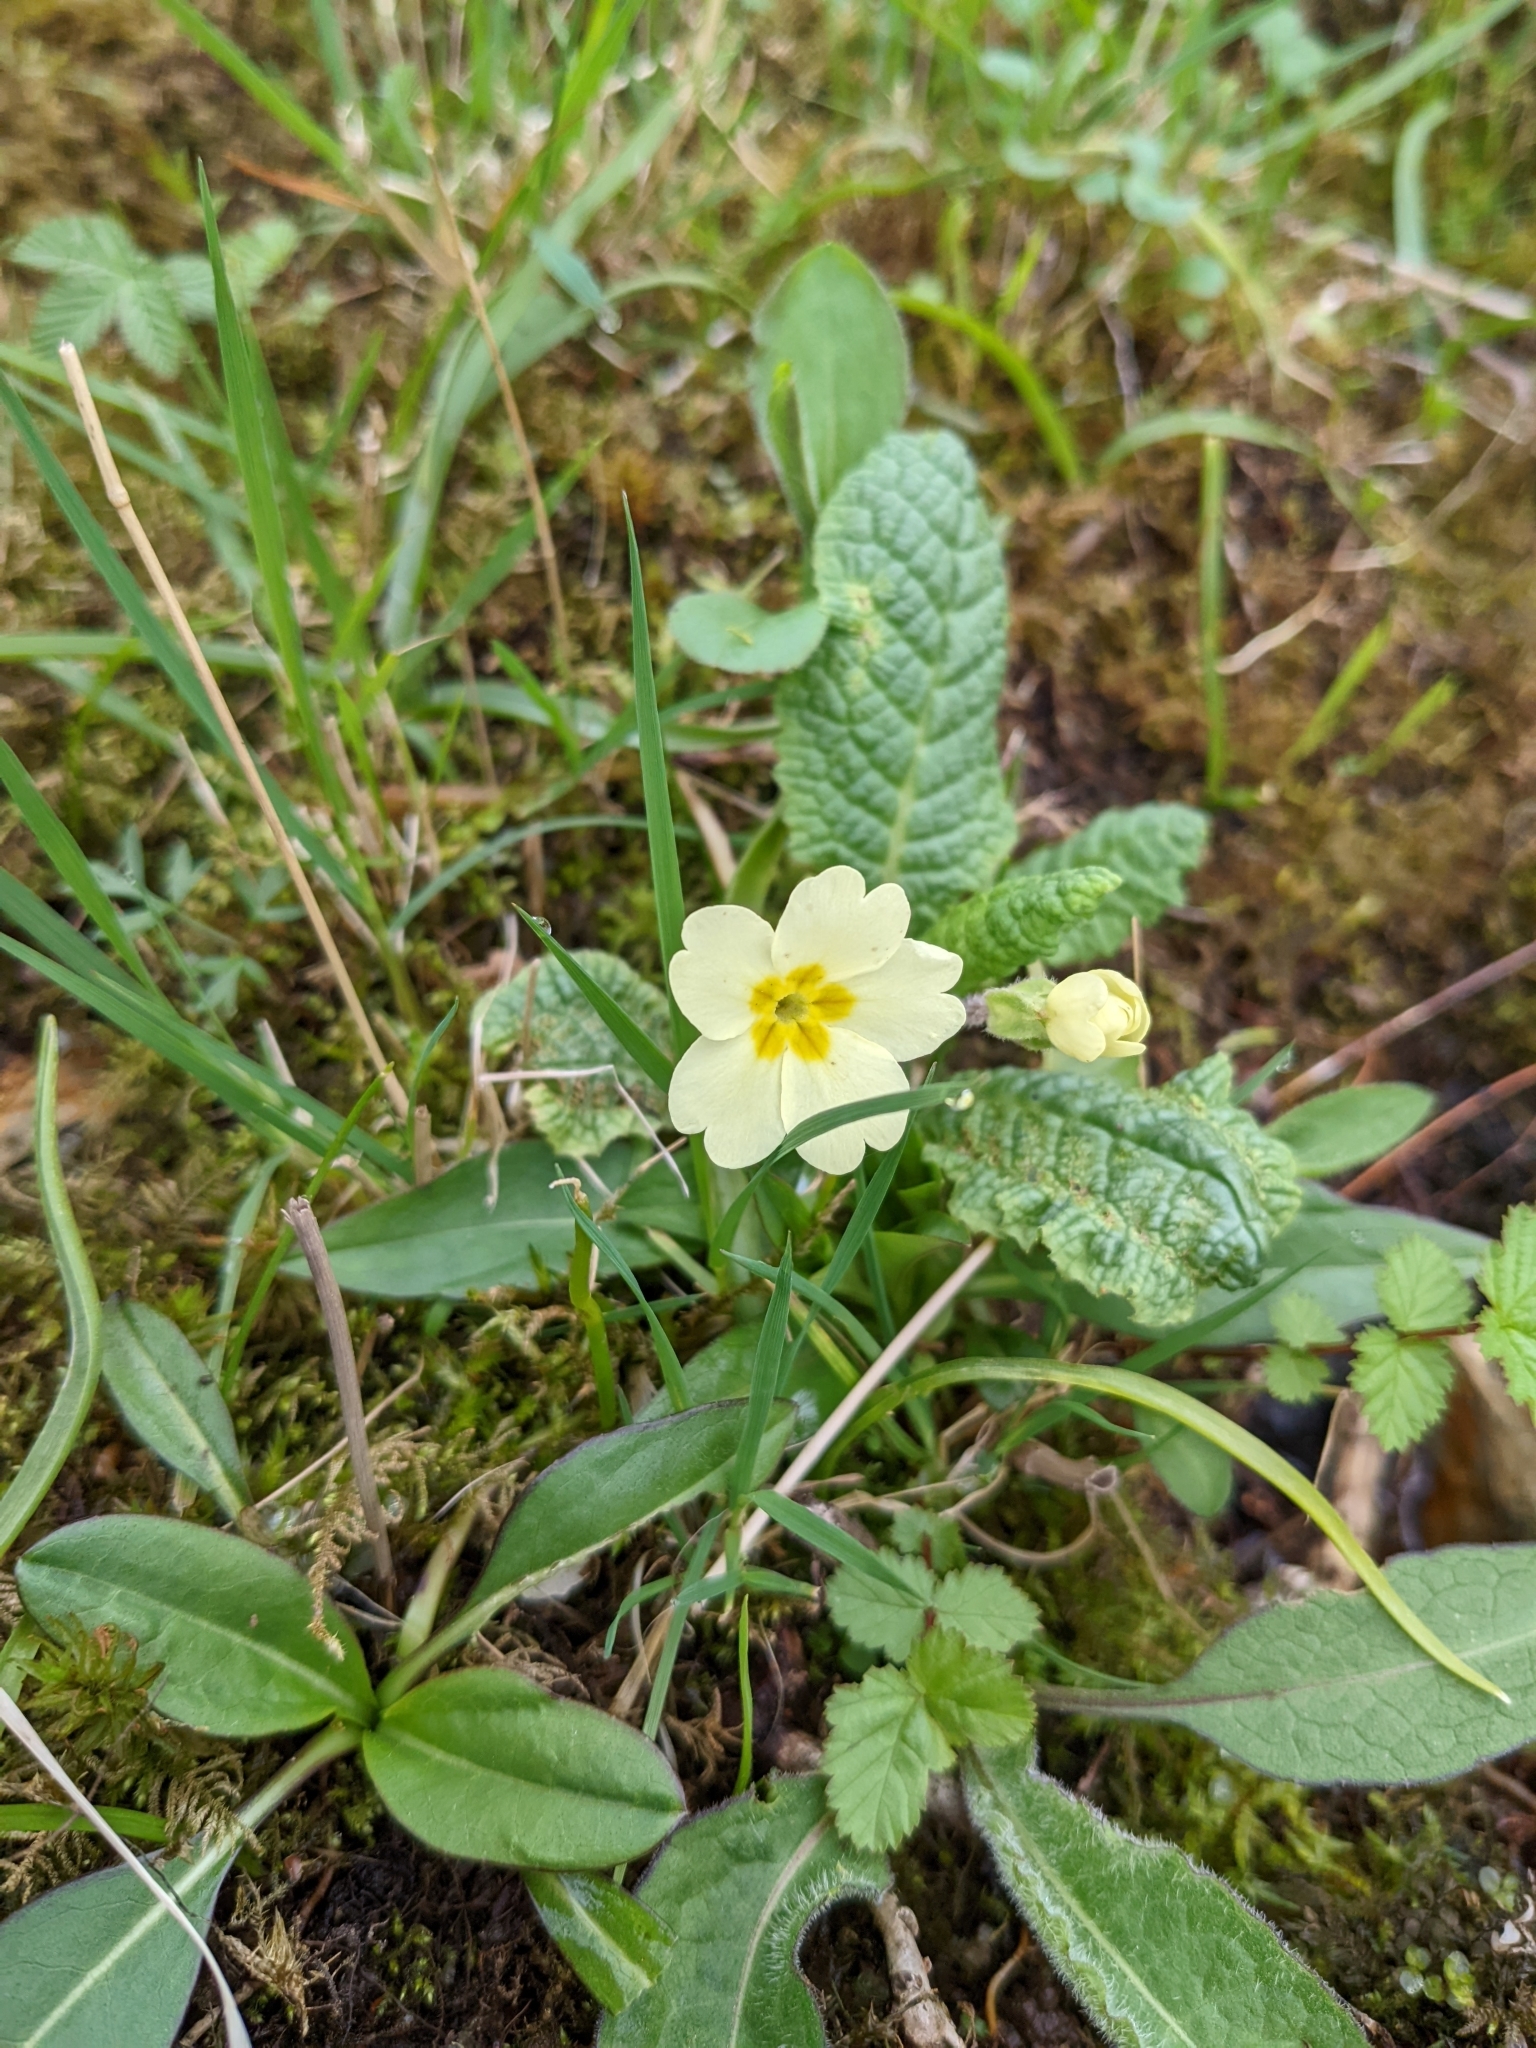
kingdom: Plantae
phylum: Tracheophyta
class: Magnoliopsida
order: Ericales
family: Primulaceae
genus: Primula
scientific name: Primula vulgaris
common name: Primrose
